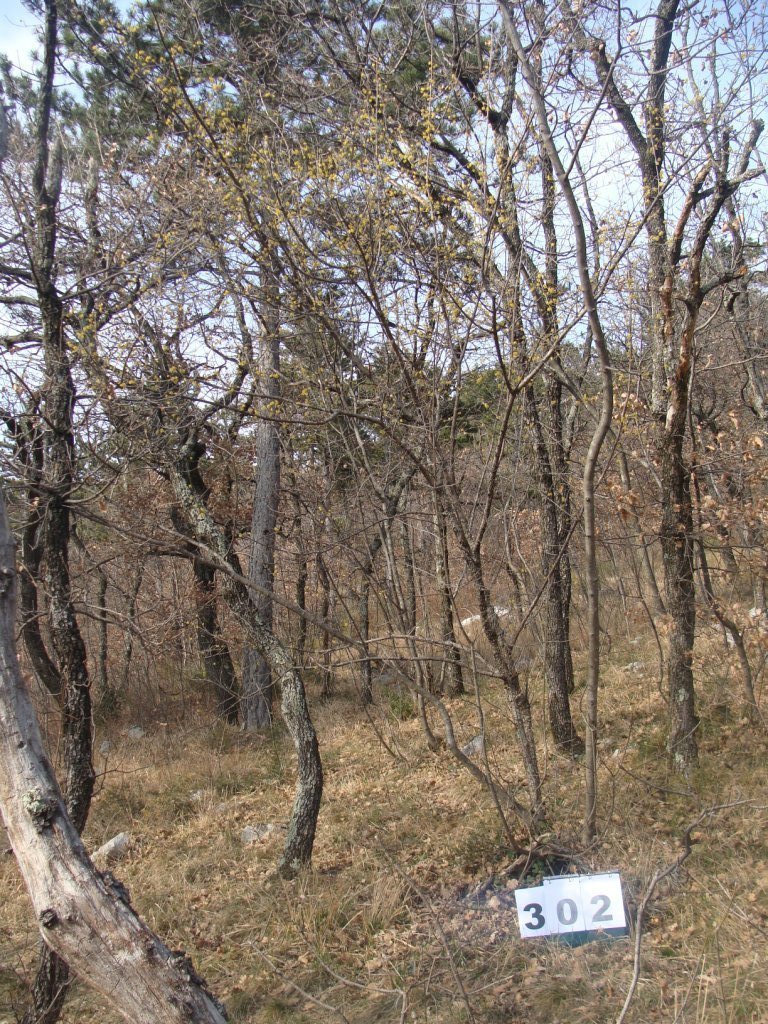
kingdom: Plantae
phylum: Tracheophyta
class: Magnoliopsida
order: Cornales
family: Cornaceae
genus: Cornus
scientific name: Cornus mas
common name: Cornelian-cherry
